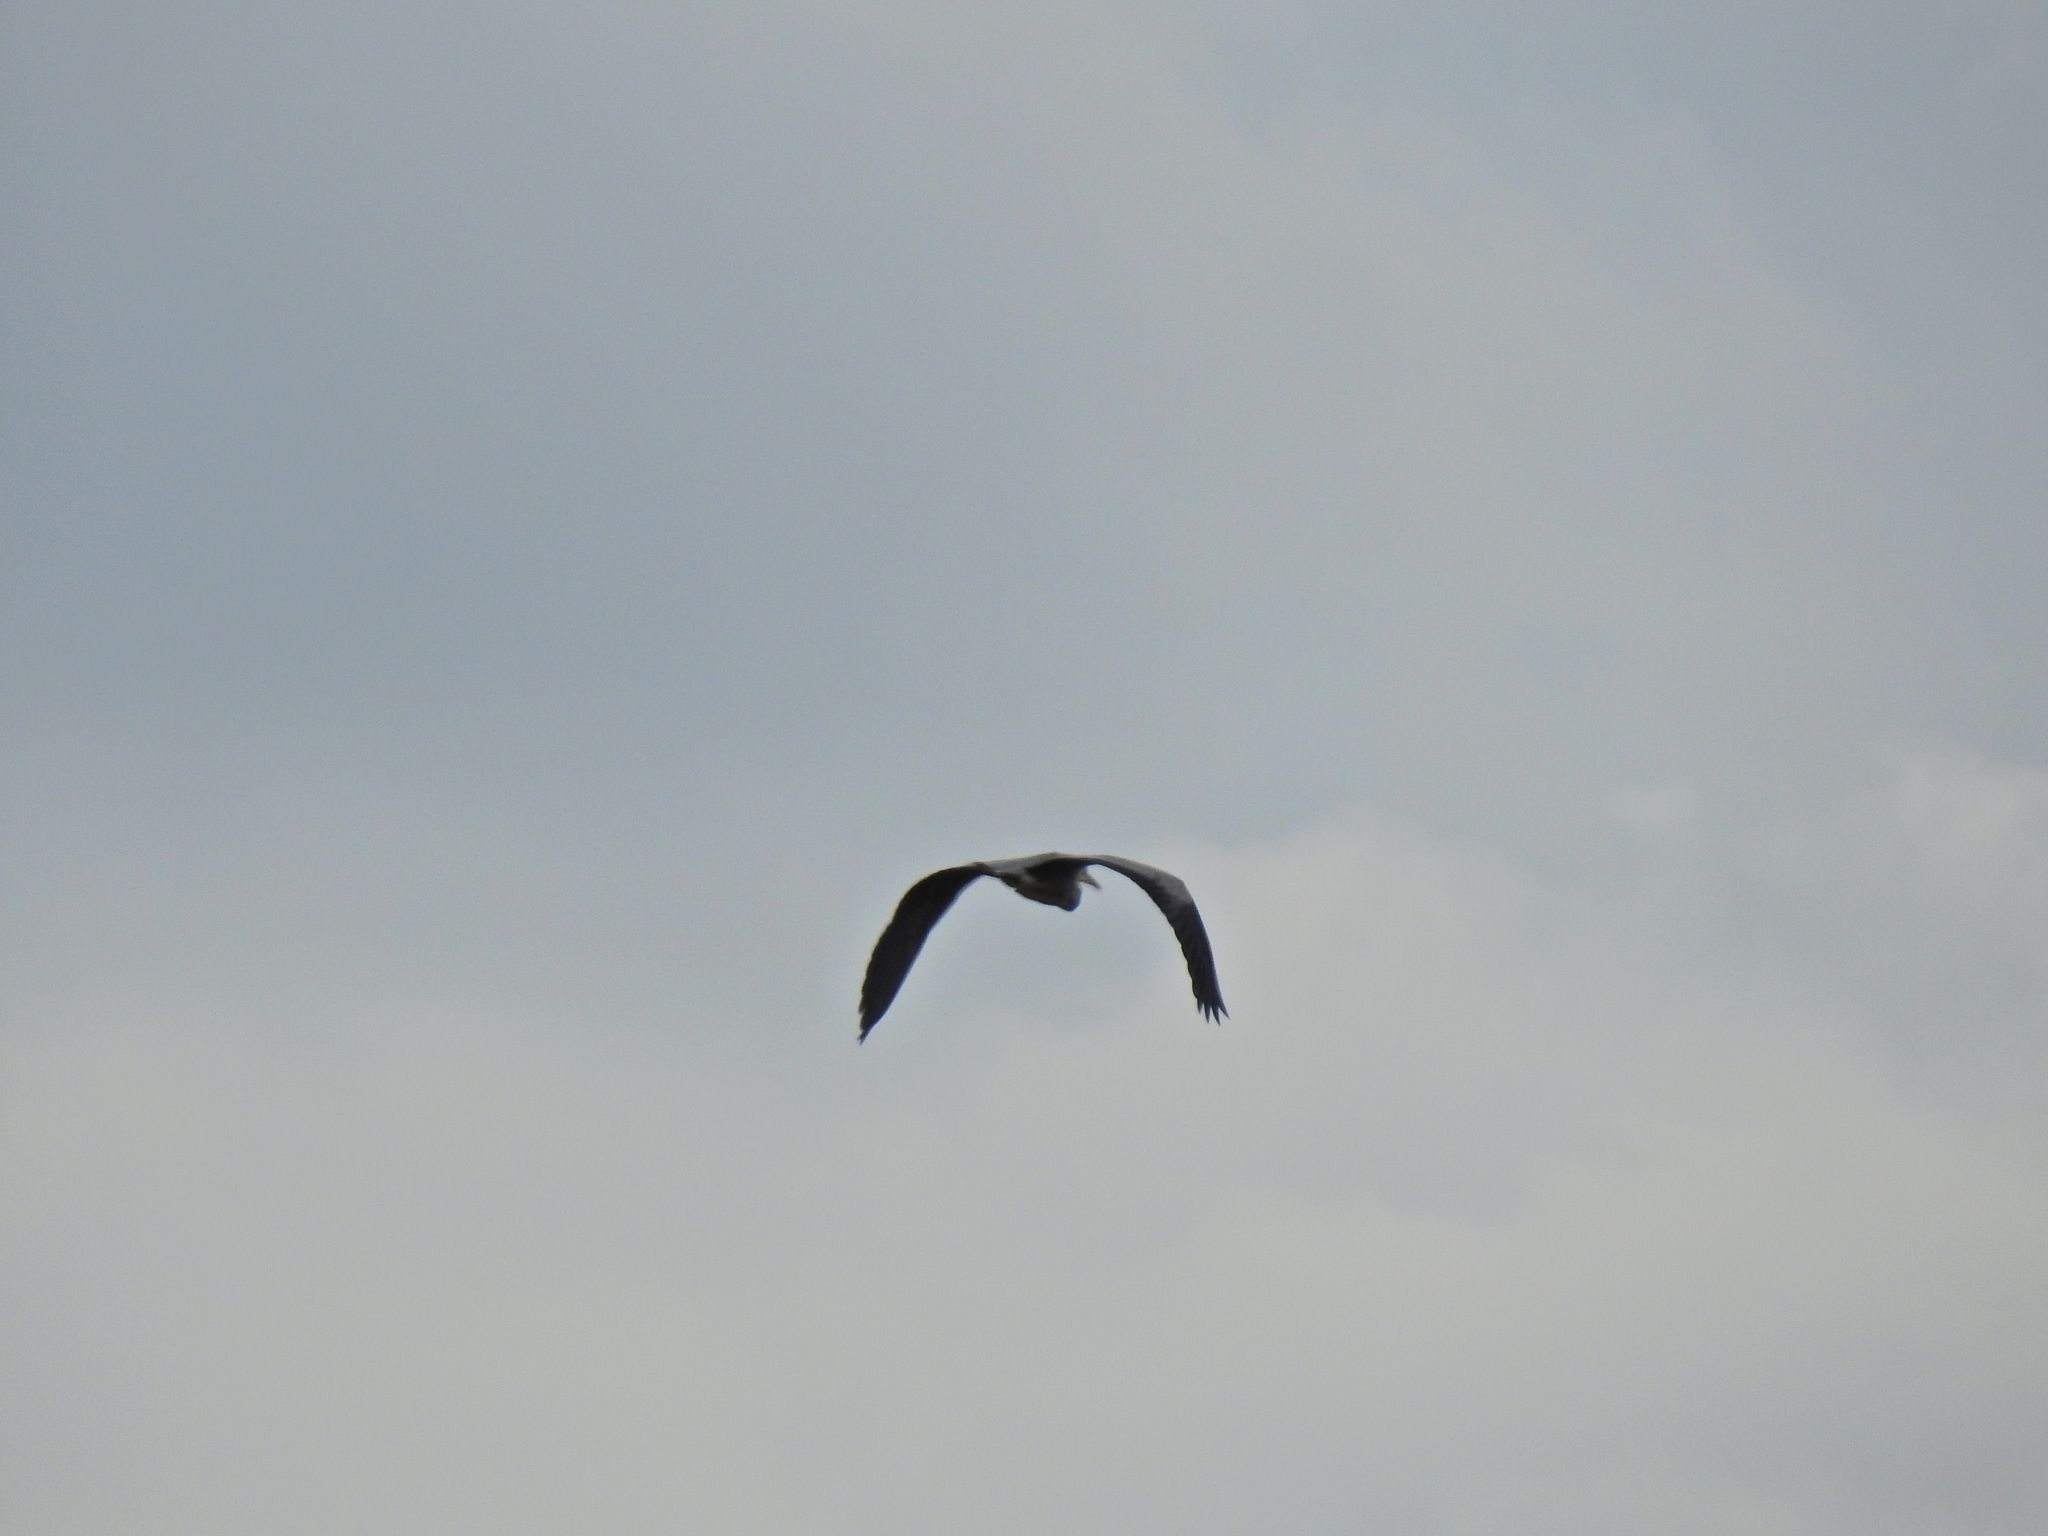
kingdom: Animalia
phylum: Chordata
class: Aves
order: Pelecaniformes
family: Ardeidae
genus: Ardea
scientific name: Ardea cinerea
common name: Grey heron
